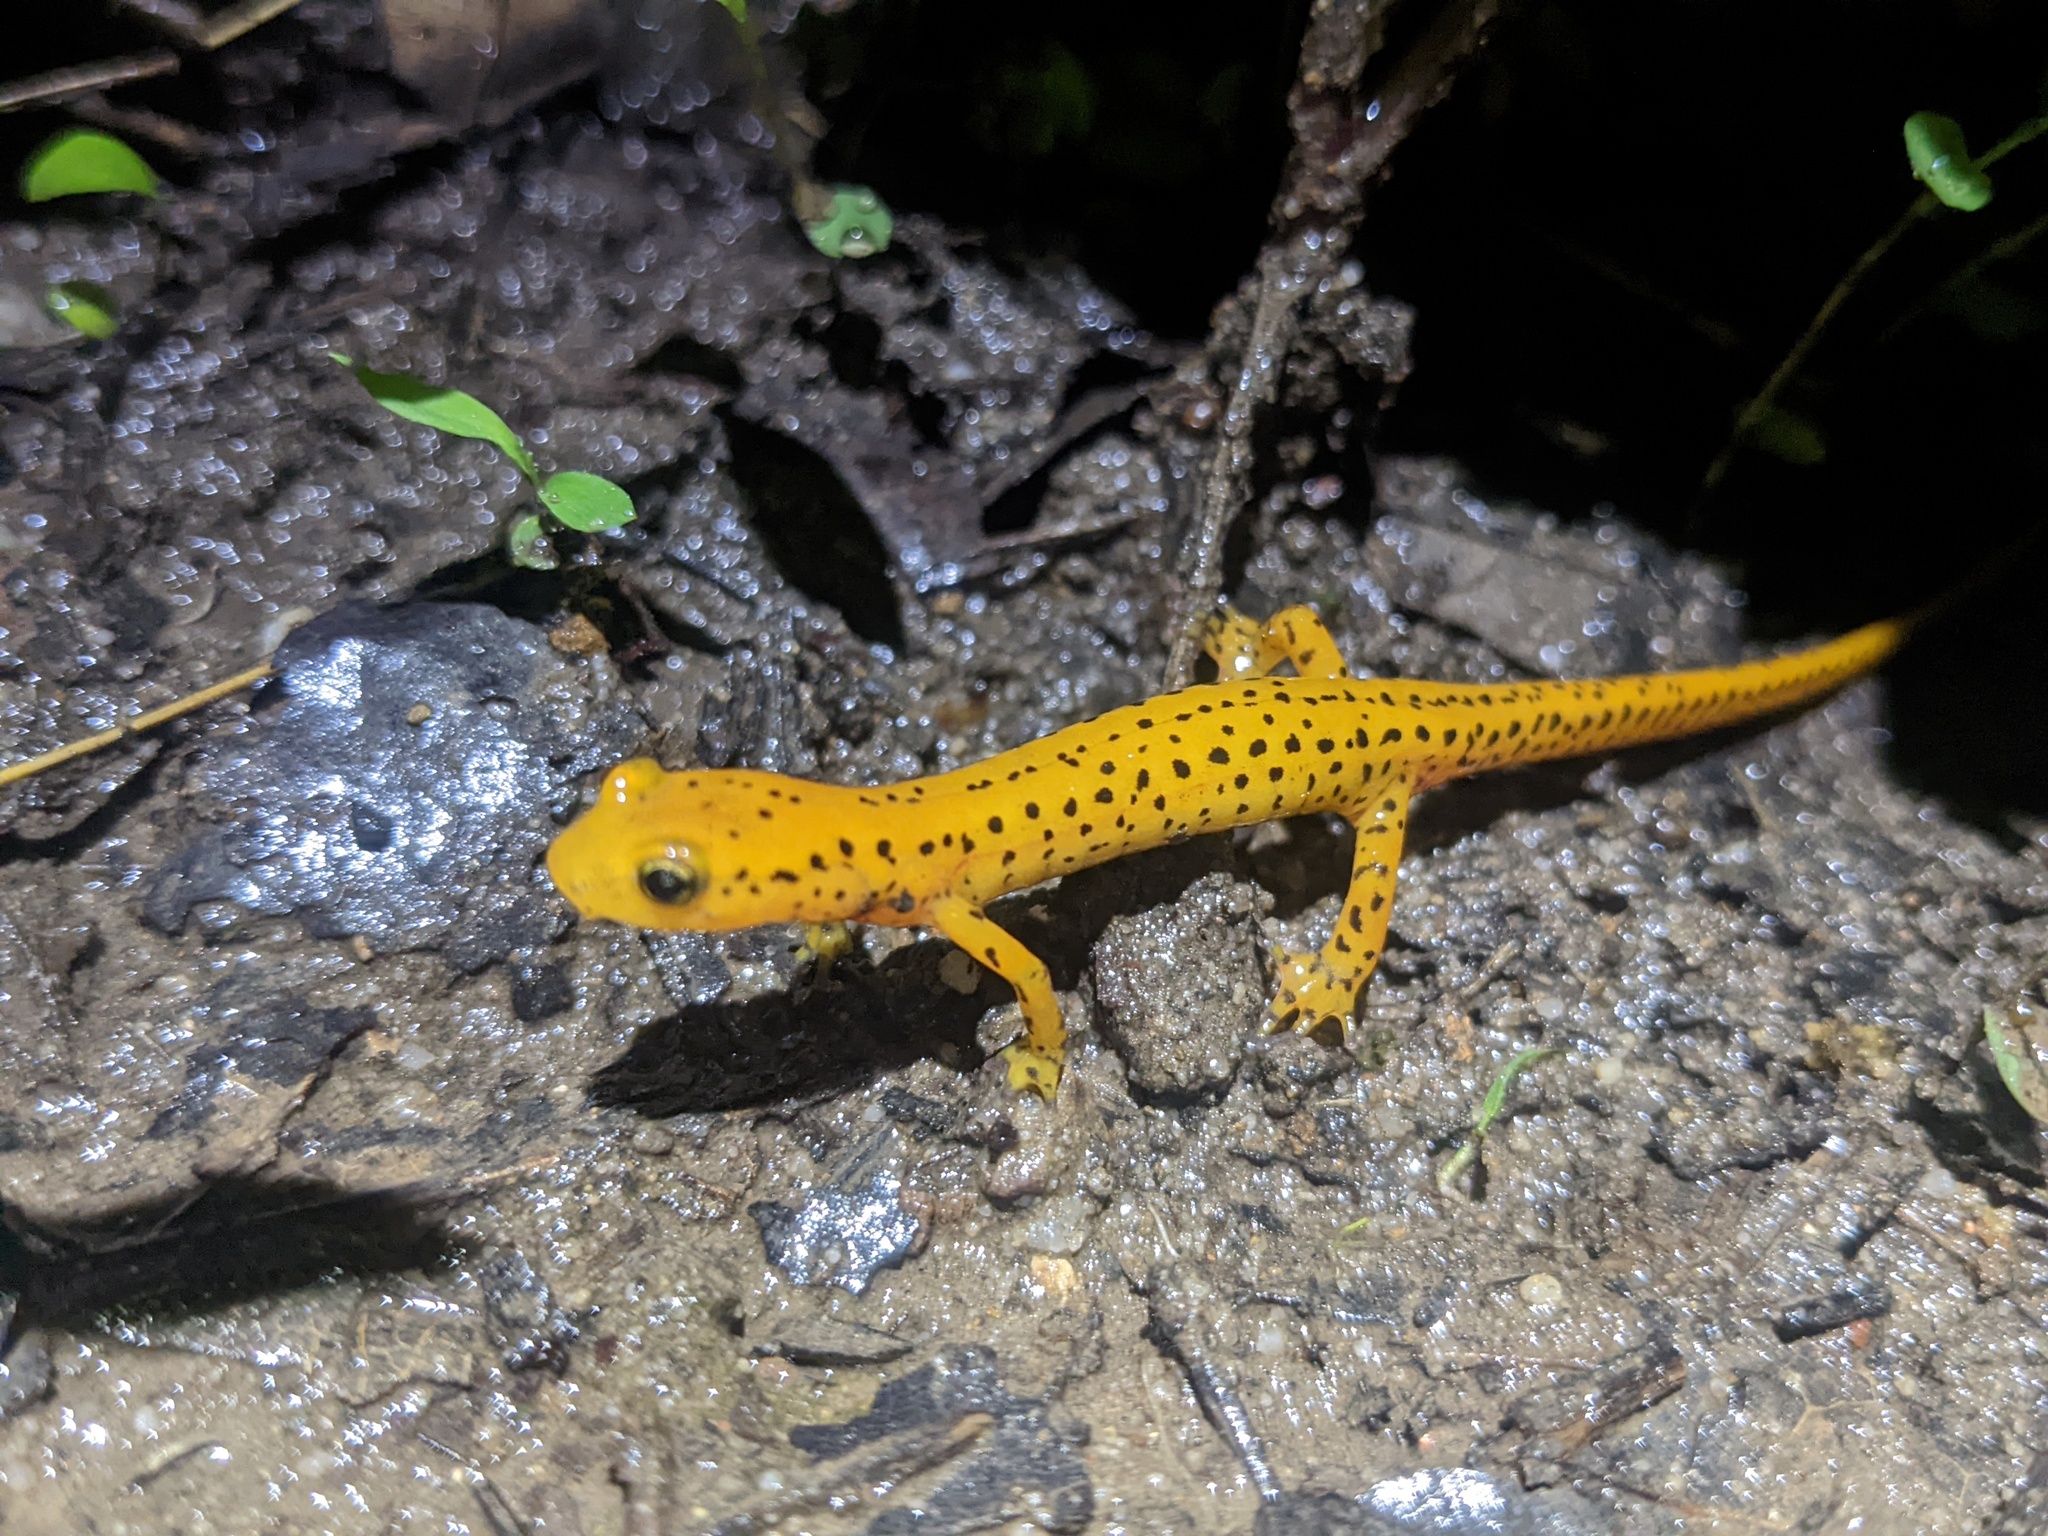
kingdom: Animalia
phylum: Chordata
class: Amphibia
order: Caudata
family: Plethodontidae
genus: Eurycea
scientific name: Eurycea longicauda
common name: Long-tailed salamander
